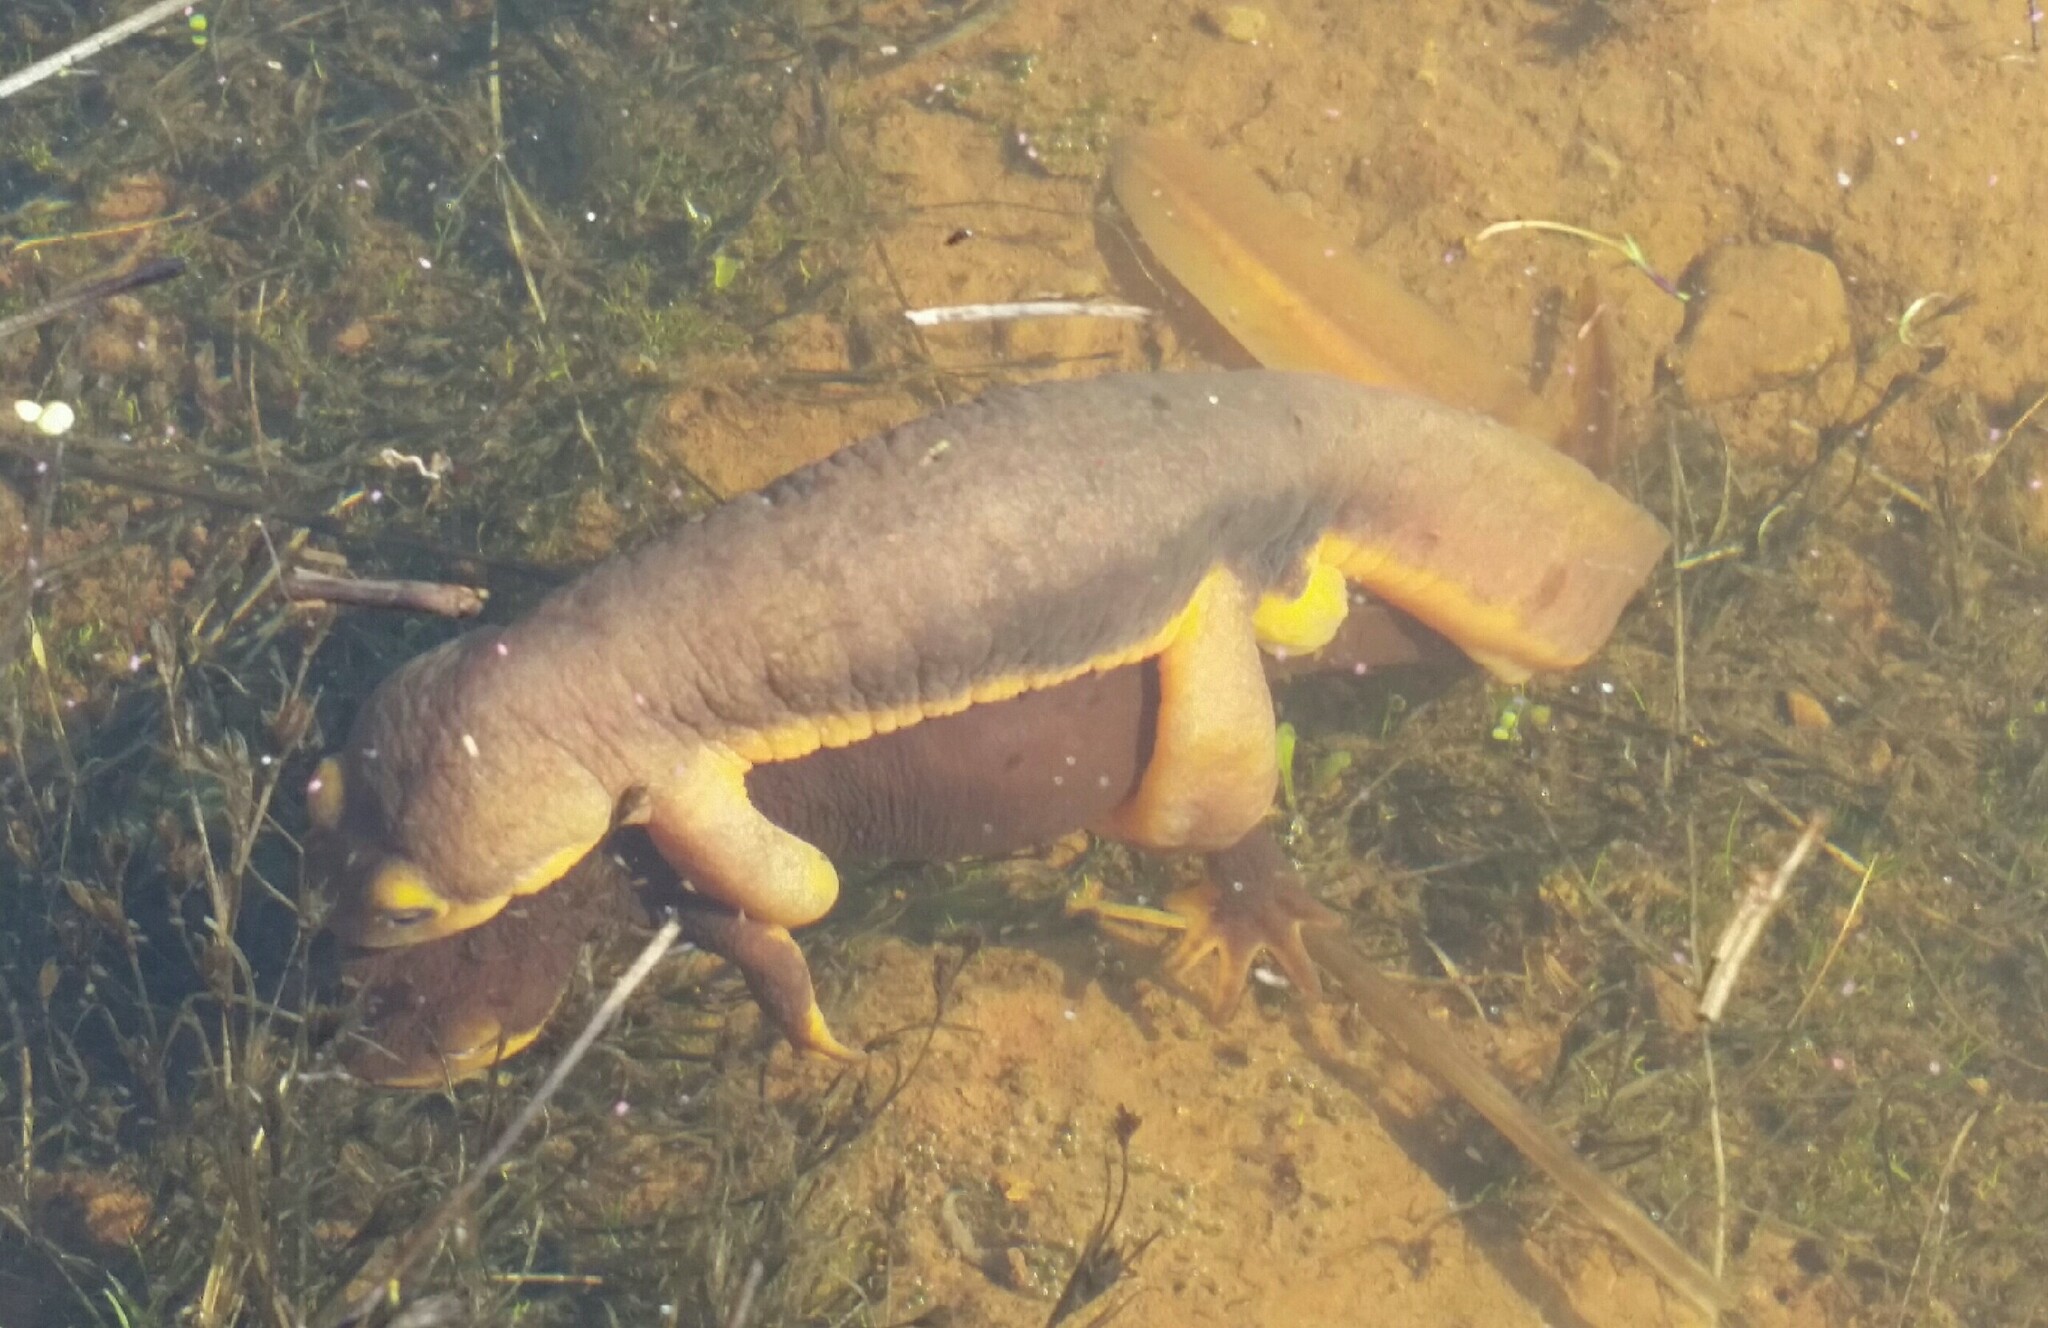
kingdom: Animalia
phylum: Chordata
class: Amphibia
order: Caudata
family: Salamandridae
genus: Taricha
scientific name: Taricha torosa
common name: California newt
